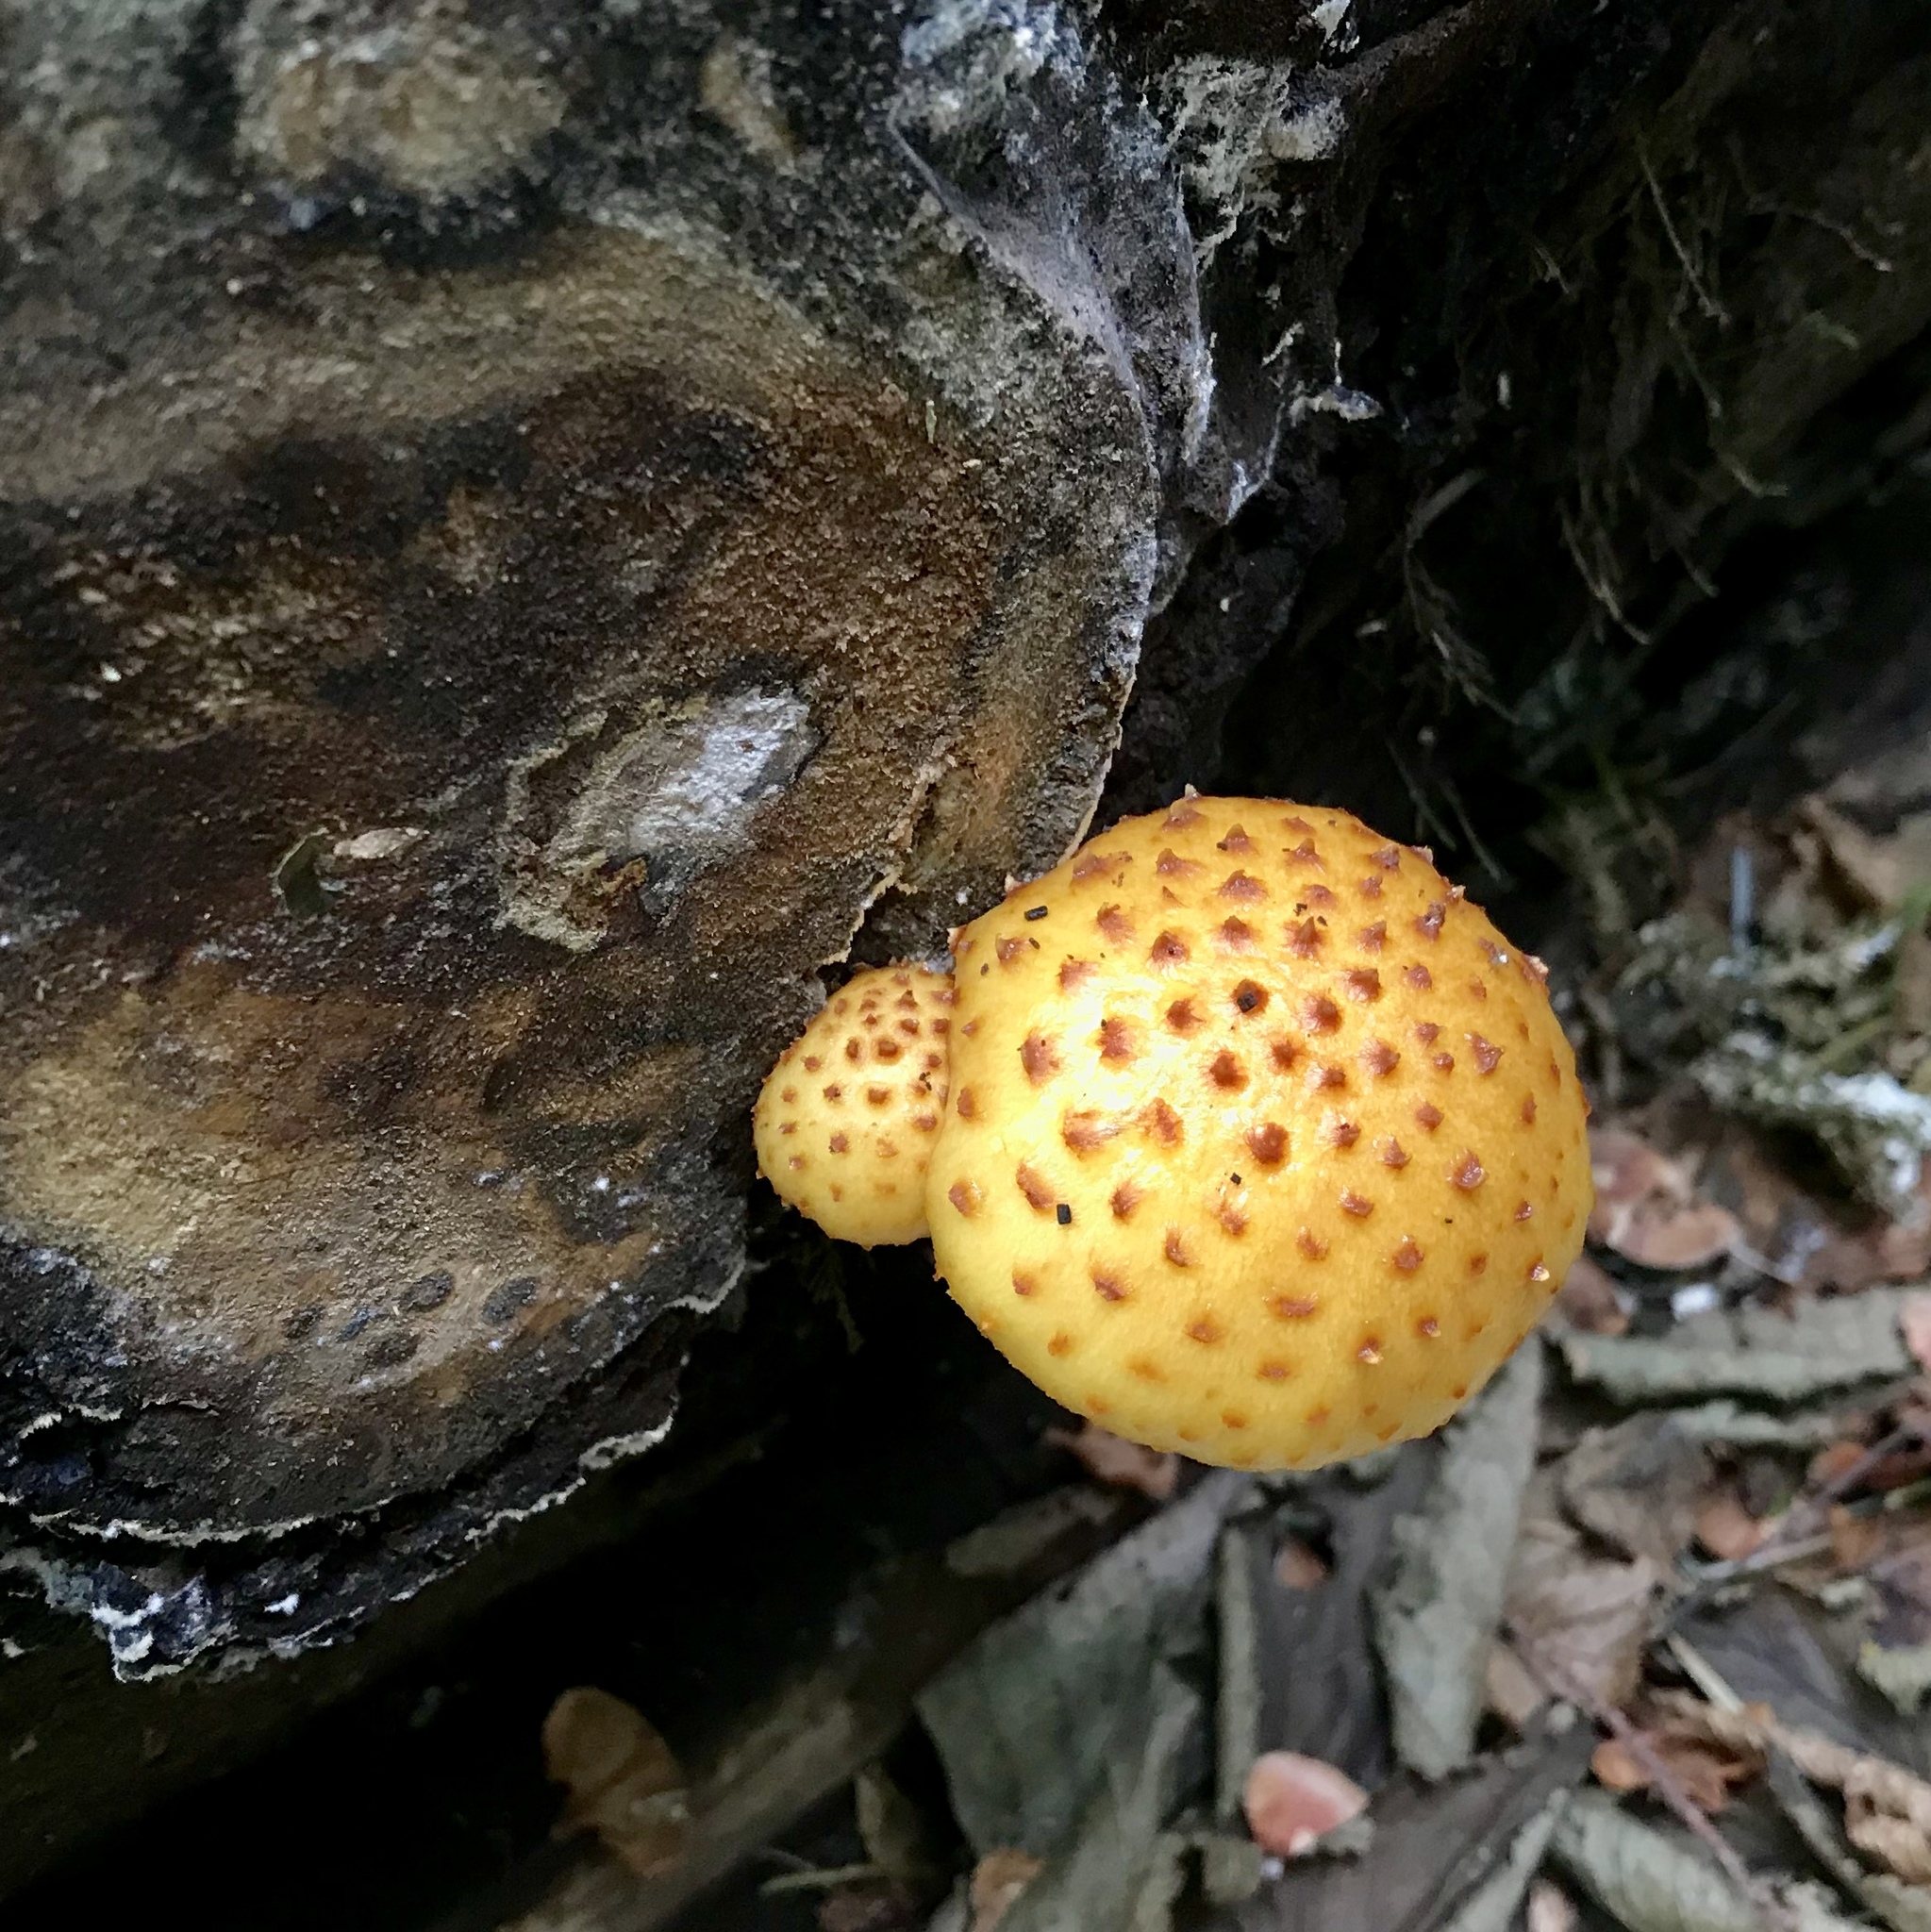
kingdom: Fungi
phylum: Basidiomycota
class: Agaricomycetes
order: Agaricales
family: Strophariaceae
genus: Pholiota
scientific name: Pholiota aurivella
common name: Golden scalycap
